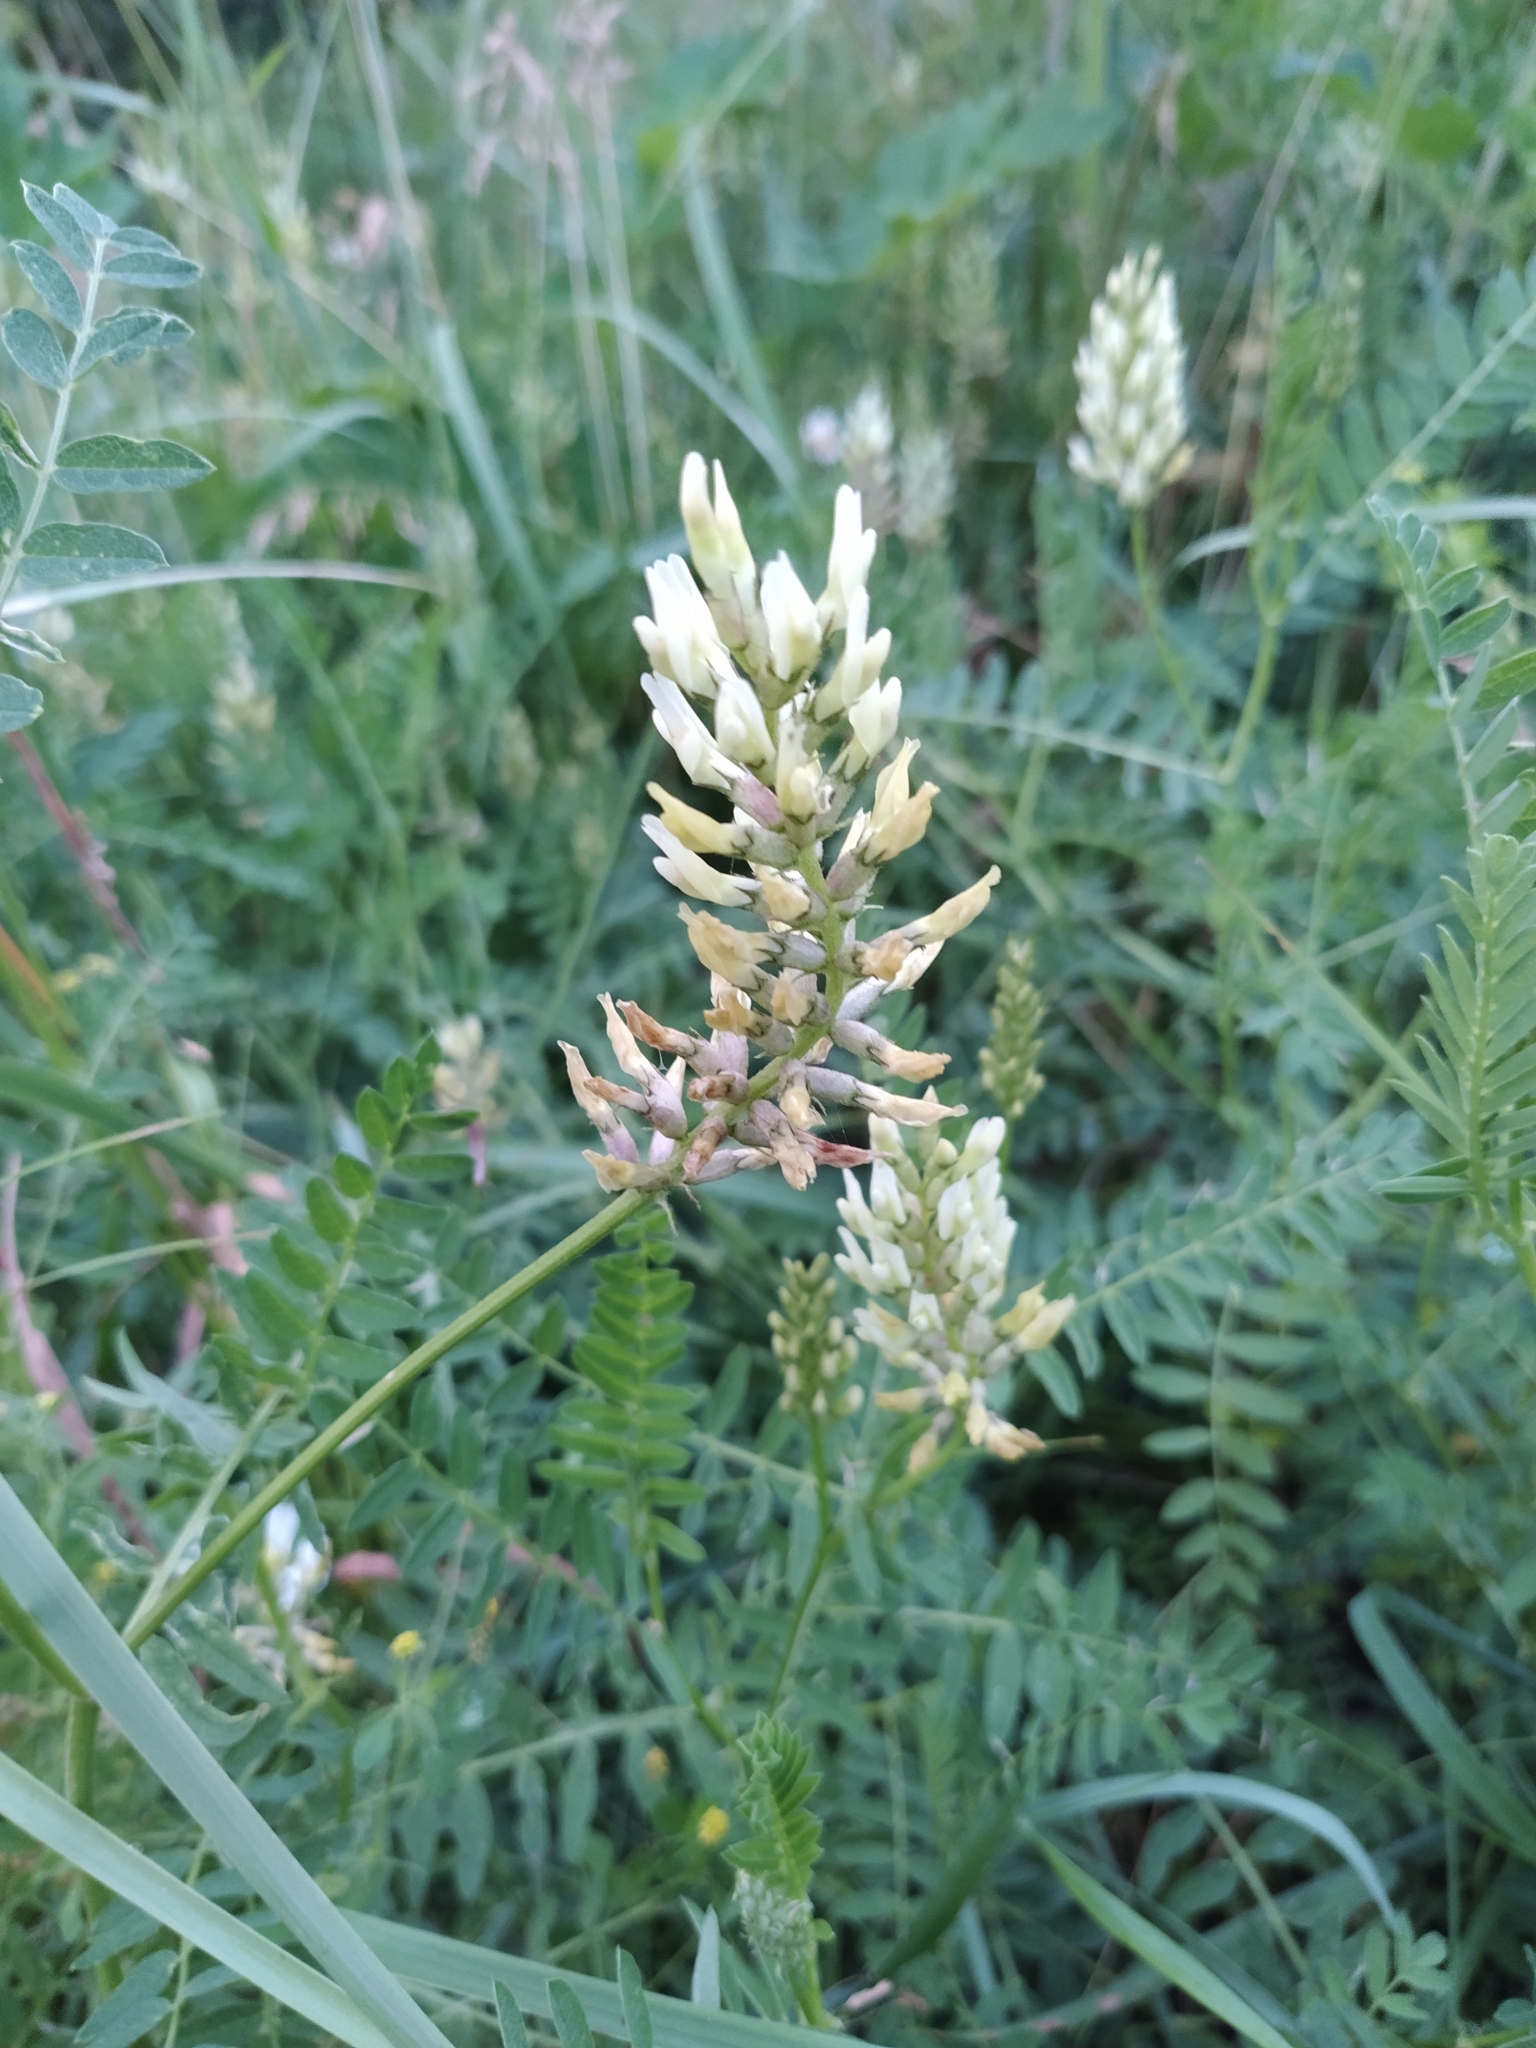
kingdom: Plantae
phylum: Tracheophyta
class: Magnoliopsida
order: Fabales
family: Fabaceae
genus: Astragalus
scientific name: Astragalus cicer
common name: Chick-pea milk-vetch
